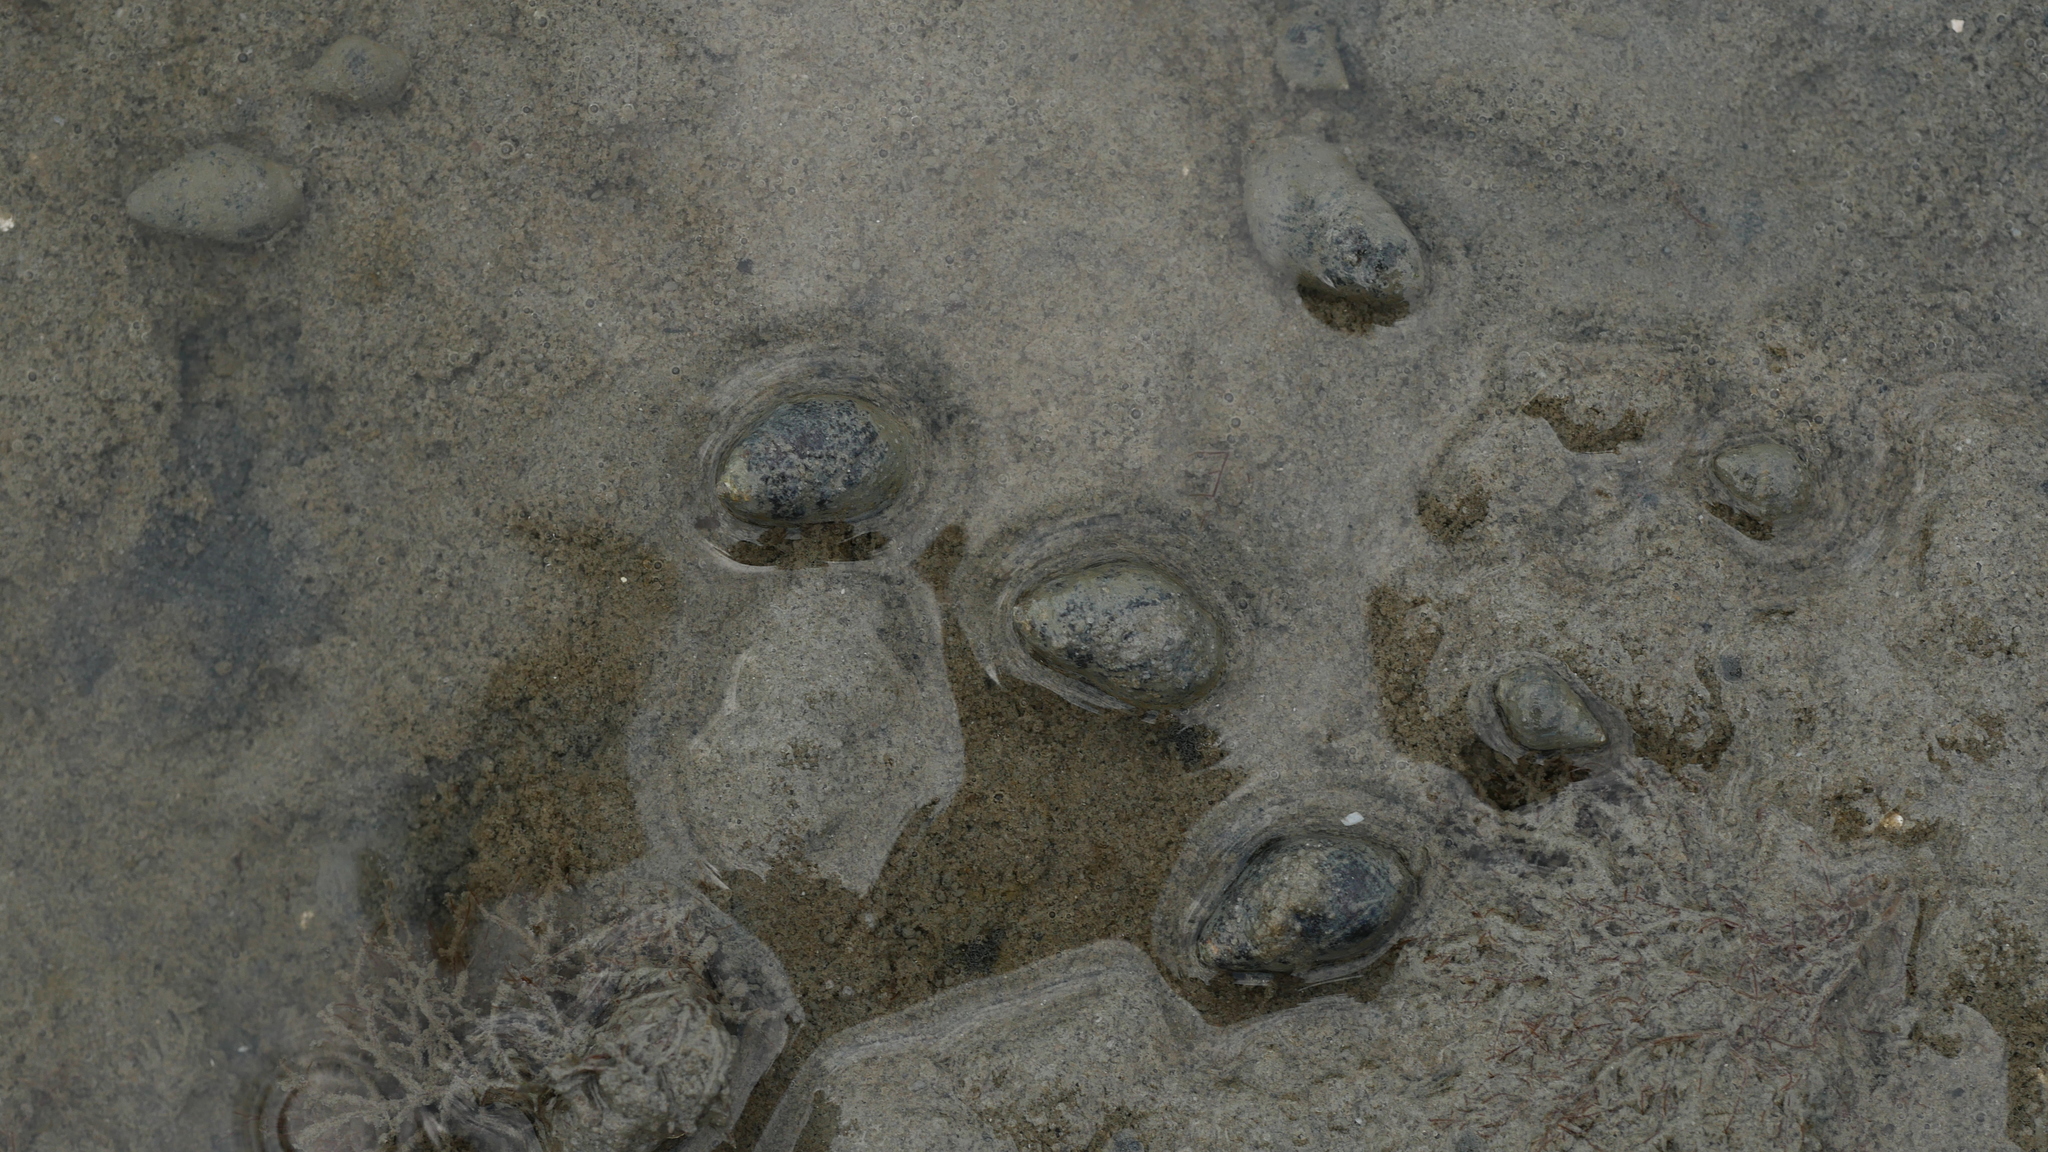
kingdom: Animalia
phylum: Mollusca
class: Gastropoda
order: Neogastropoda
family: Nassariidae
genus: Ilyanassa
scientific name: Ilyanassa obsoleta
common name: Eastern mudsnail
